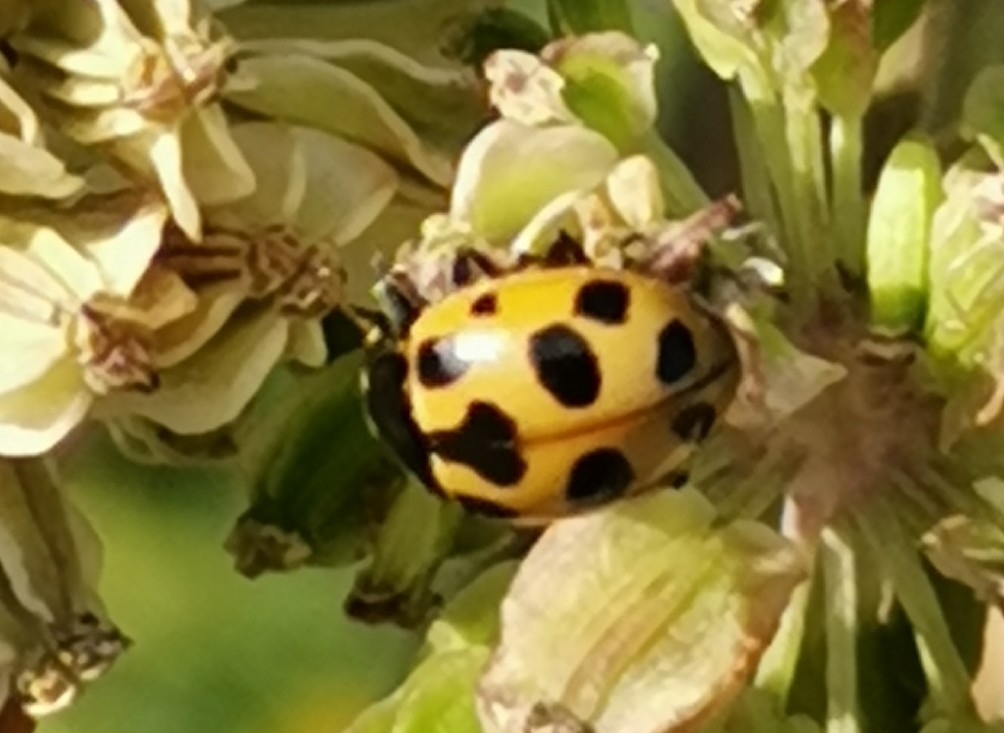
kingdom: Animalia
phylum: Arthropoda
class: Insecta
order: Coleoptera
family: Coccinellidae
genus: Ceratomegilla
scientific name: Ceratomegilla notata
